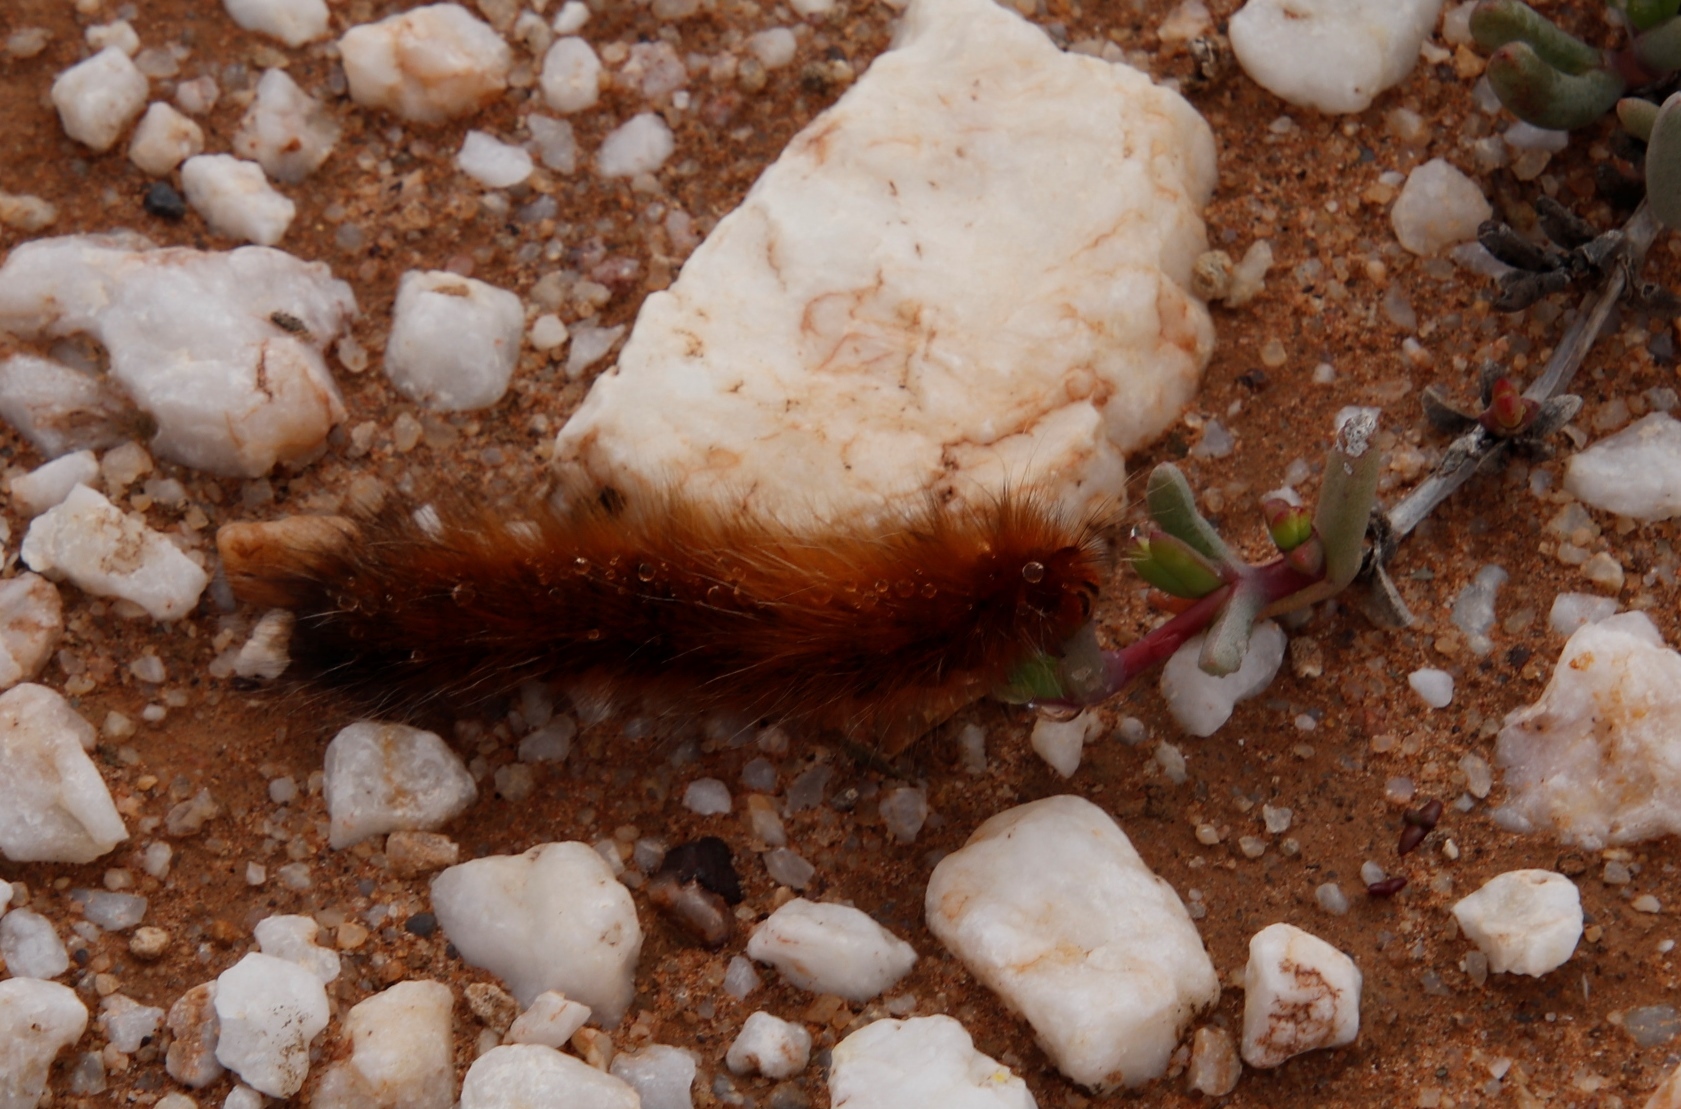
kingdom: Animalia
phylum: Arthropoda
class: Insecta
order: Lepidoptera
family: Lasiocampidae
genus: Mesocelis
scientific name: Mesocelis monticola
